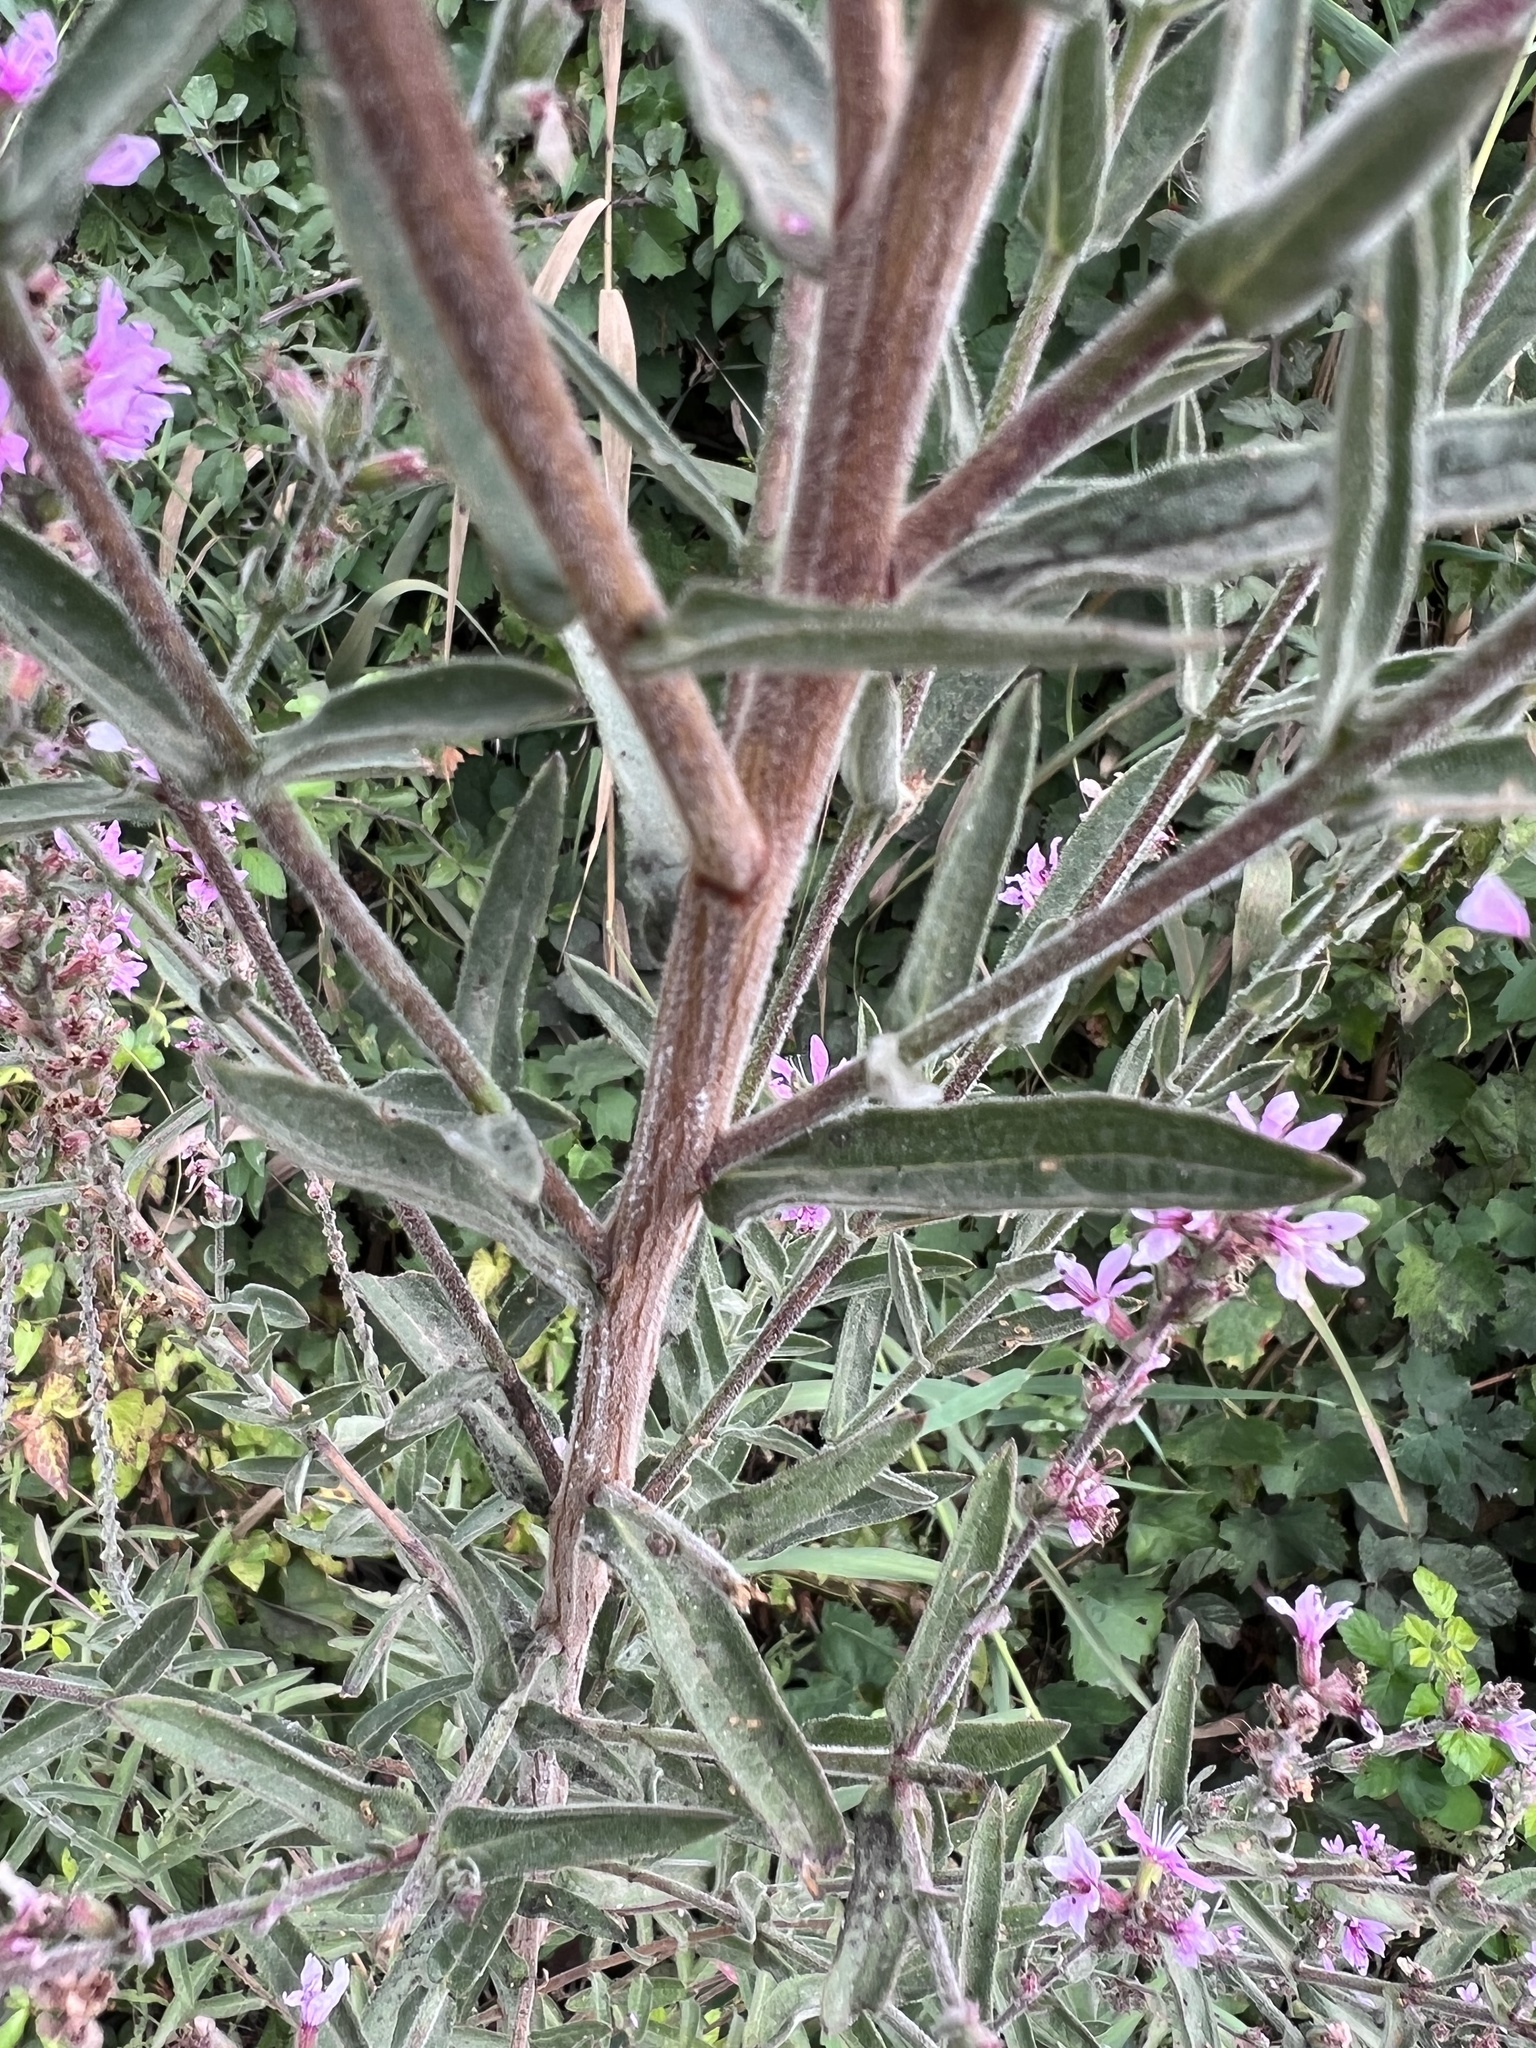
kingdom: Plantae
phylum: Tracheophyta
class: Magnoliopsida
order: Myrtales
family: Lythraceae
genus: Lythrum
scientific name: Lythrum salicaria
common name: Purple loosestrife
